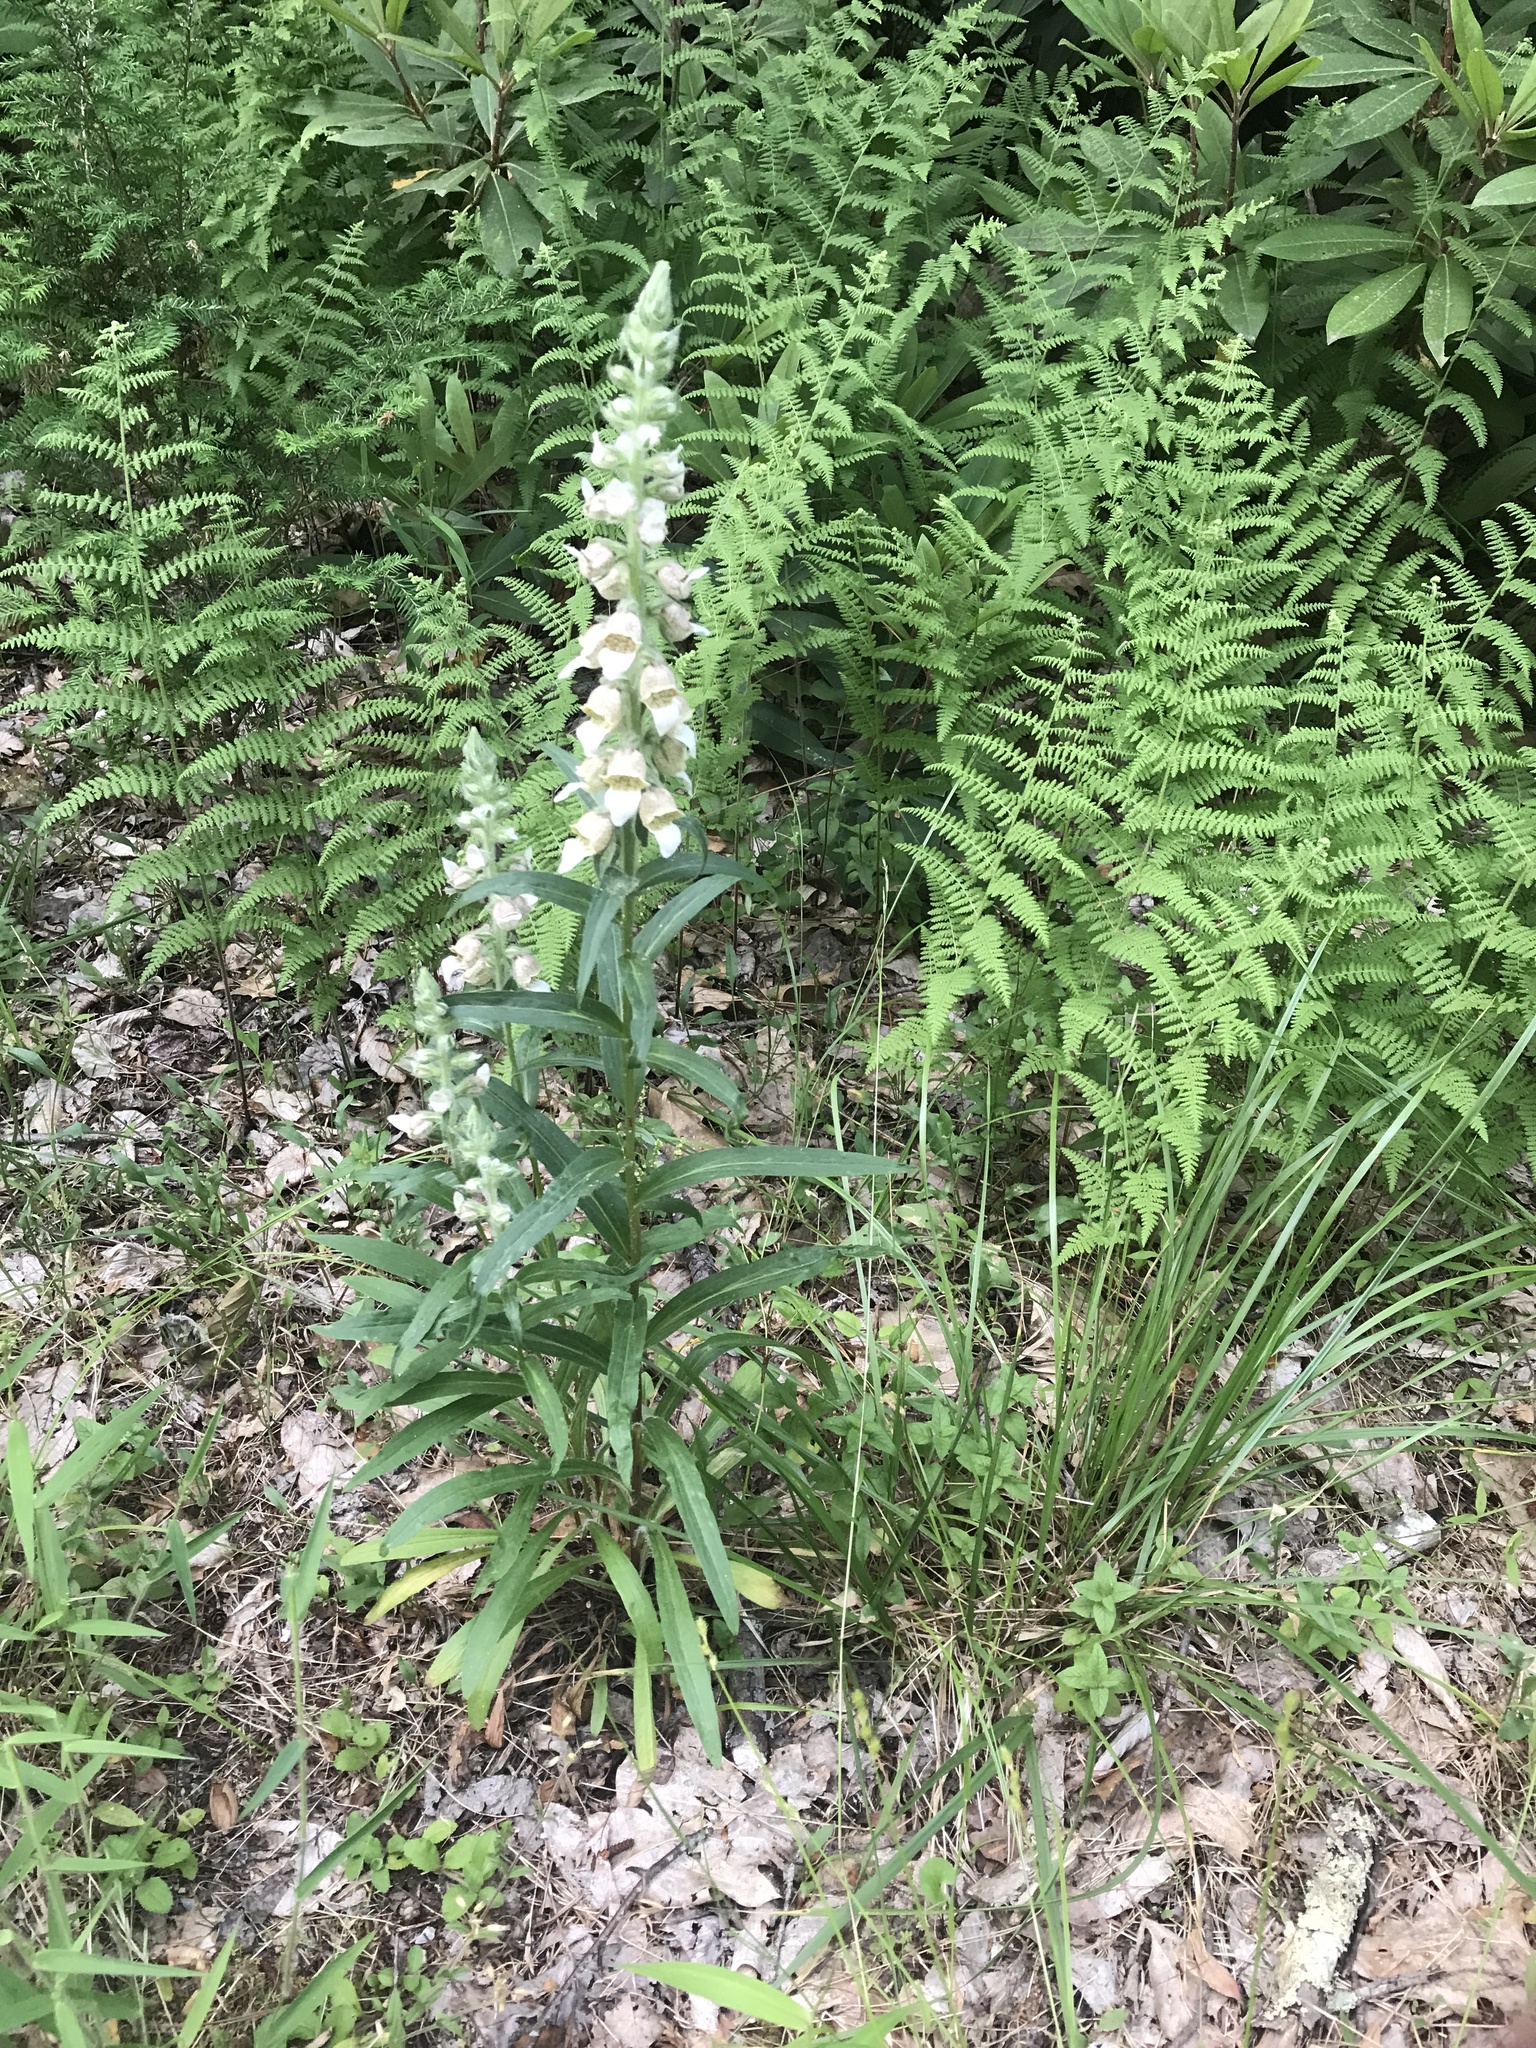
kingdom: Plantae
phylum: Tracheophyta
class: Magnoliopsida
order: Lamiales
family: Plantaginaceae
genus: Digitalis
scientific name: Digitalis lanata
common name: Grecian foxglove
